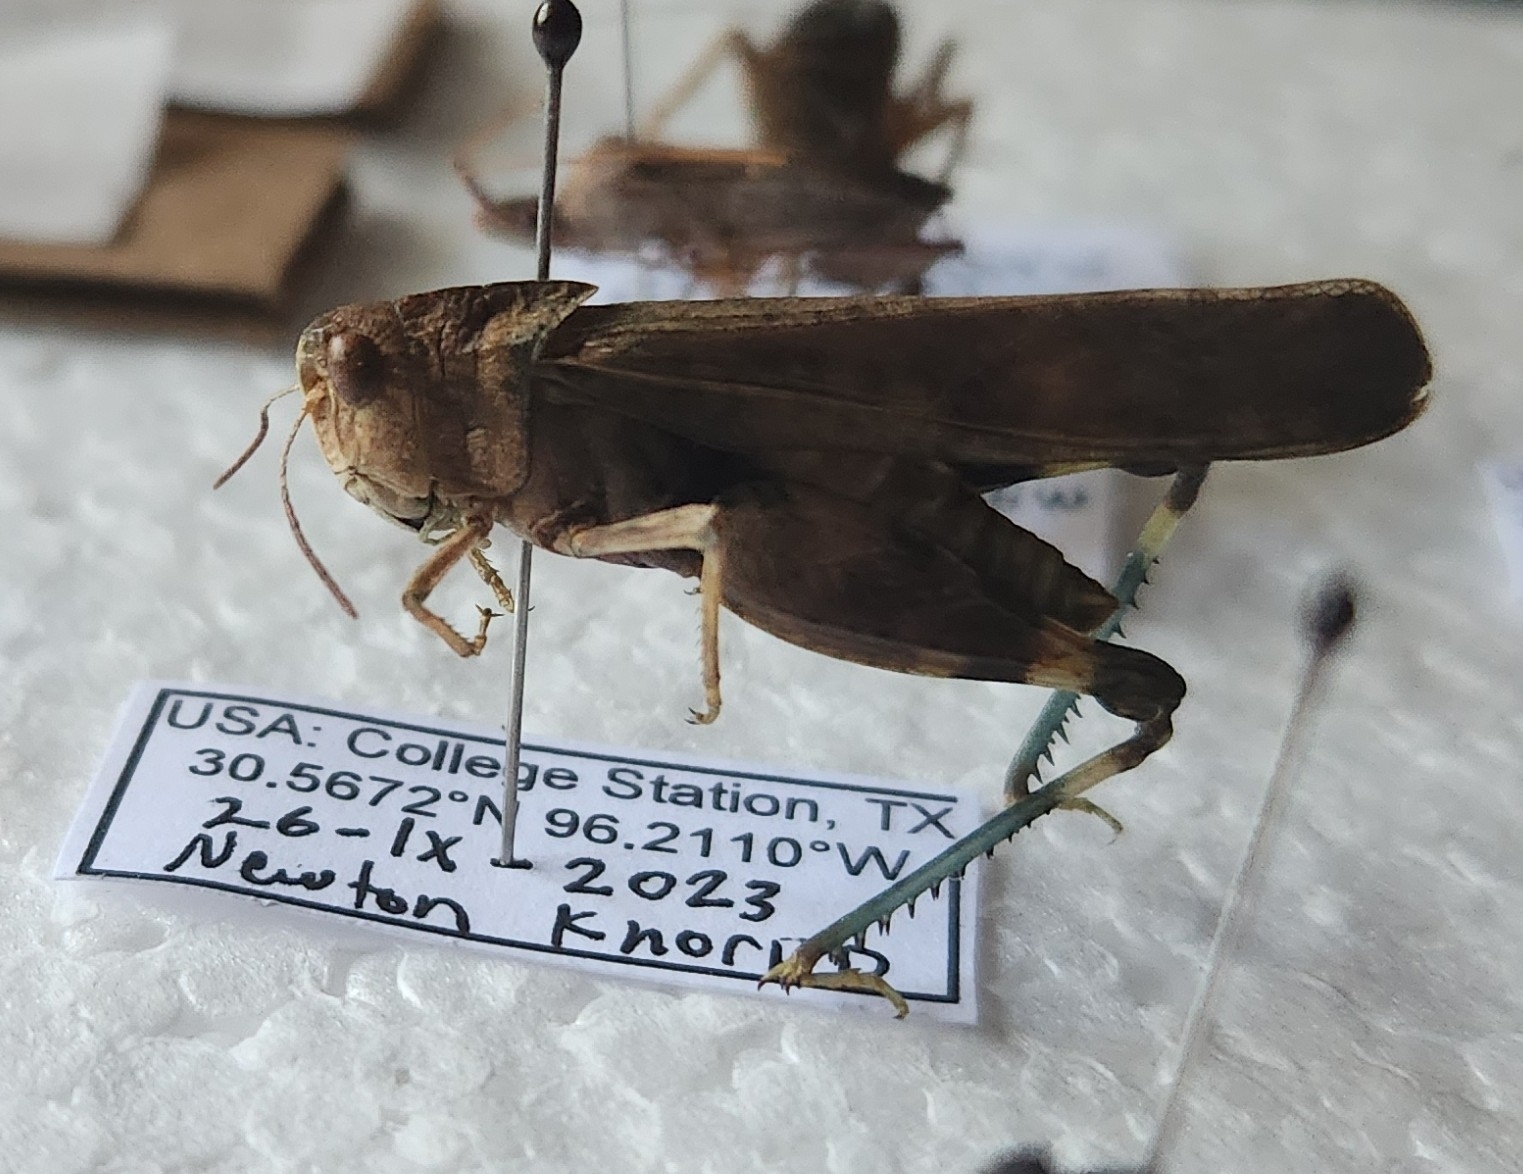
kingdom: Animalia
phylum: Arthropoda
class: Insecta
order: Orthoptera
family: Acrididae
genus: Arphia
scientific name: Arphia simplex
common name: Plains yellow-winged grasshopper
